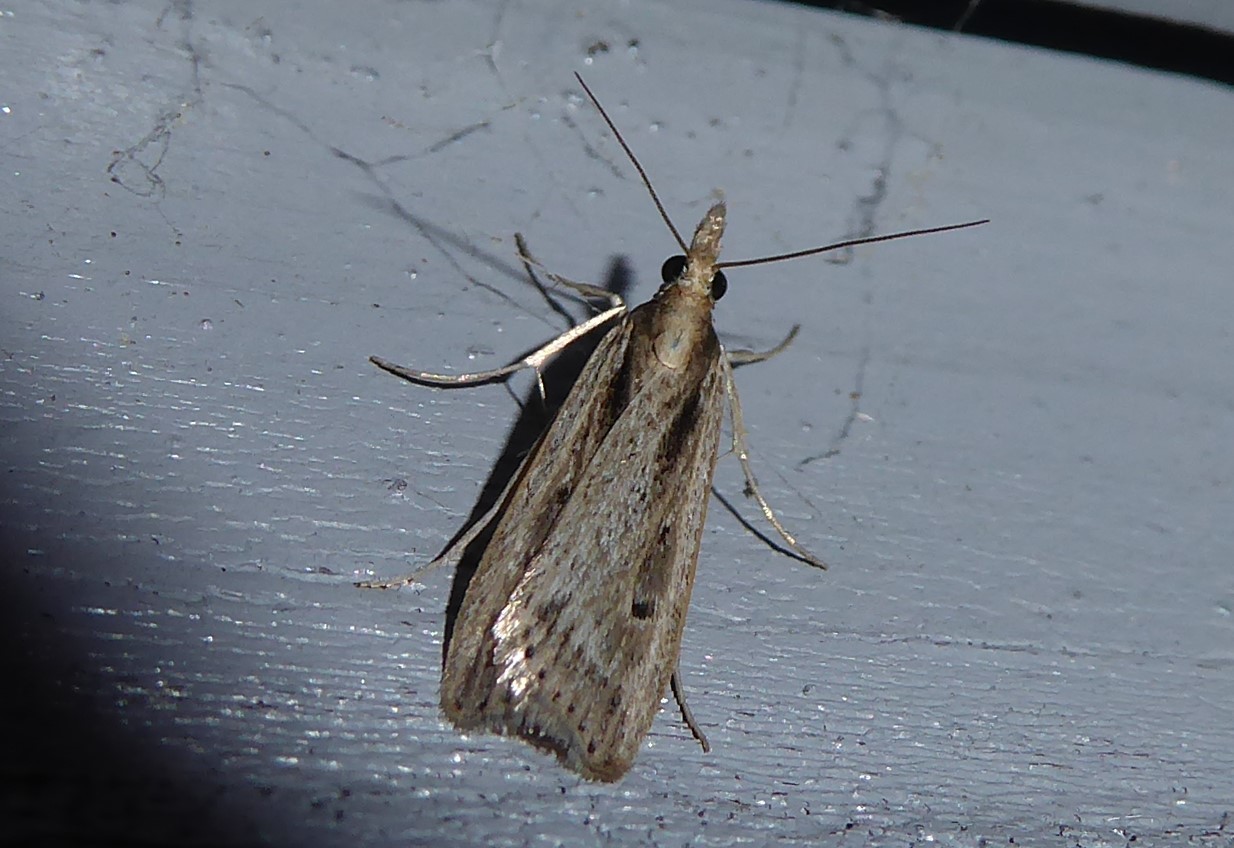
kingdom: Animalia
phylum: Arthropoda
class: Insecta
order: Lepidoptera
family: Crambidae
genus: Eudonia
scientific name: Eudonia sabulosella
